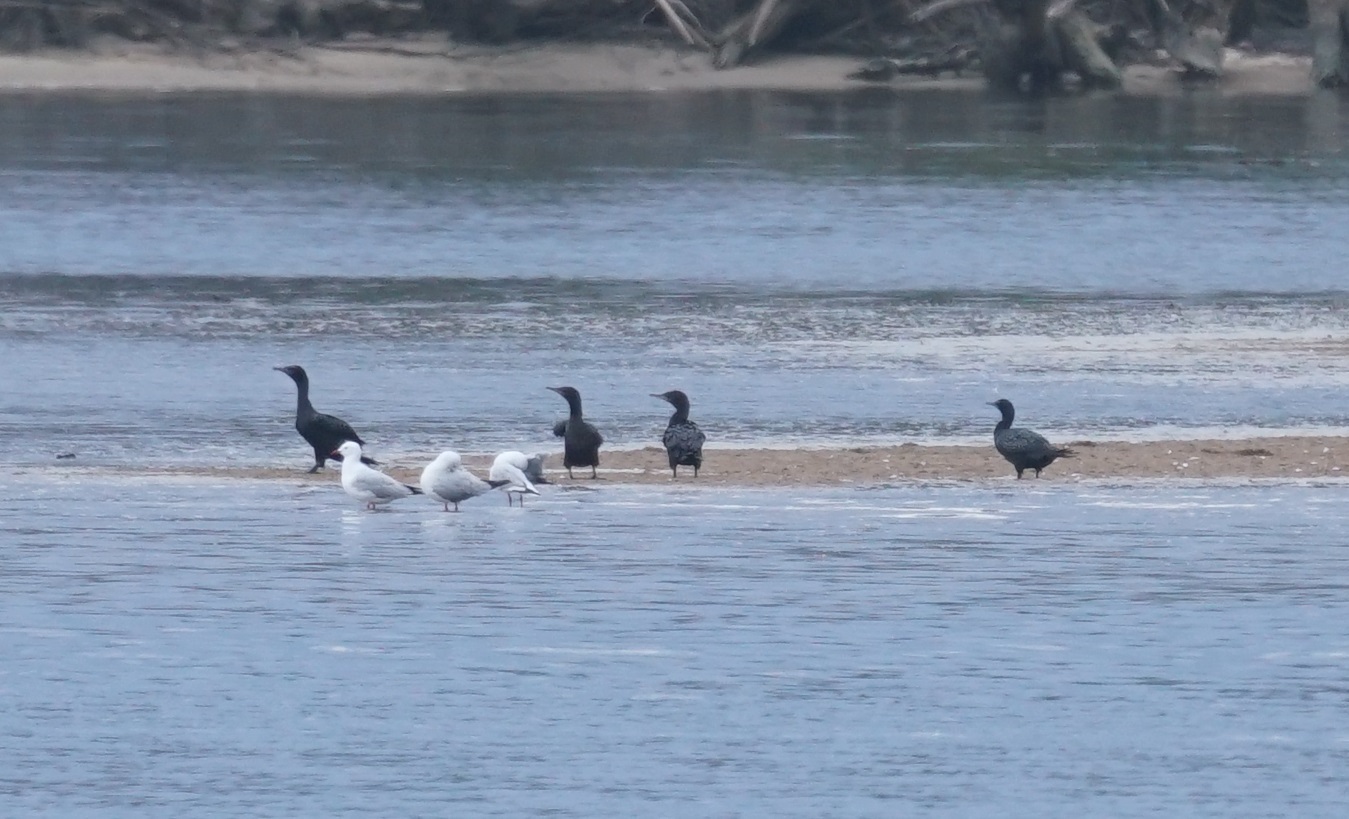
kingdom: Animalia
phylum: Chordata
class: Aves
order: Suliformes
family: Phalacrocoracidae
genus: Phalacrocorax
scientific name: Phalacrocorax sulcirostris
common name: Little black cormorant
